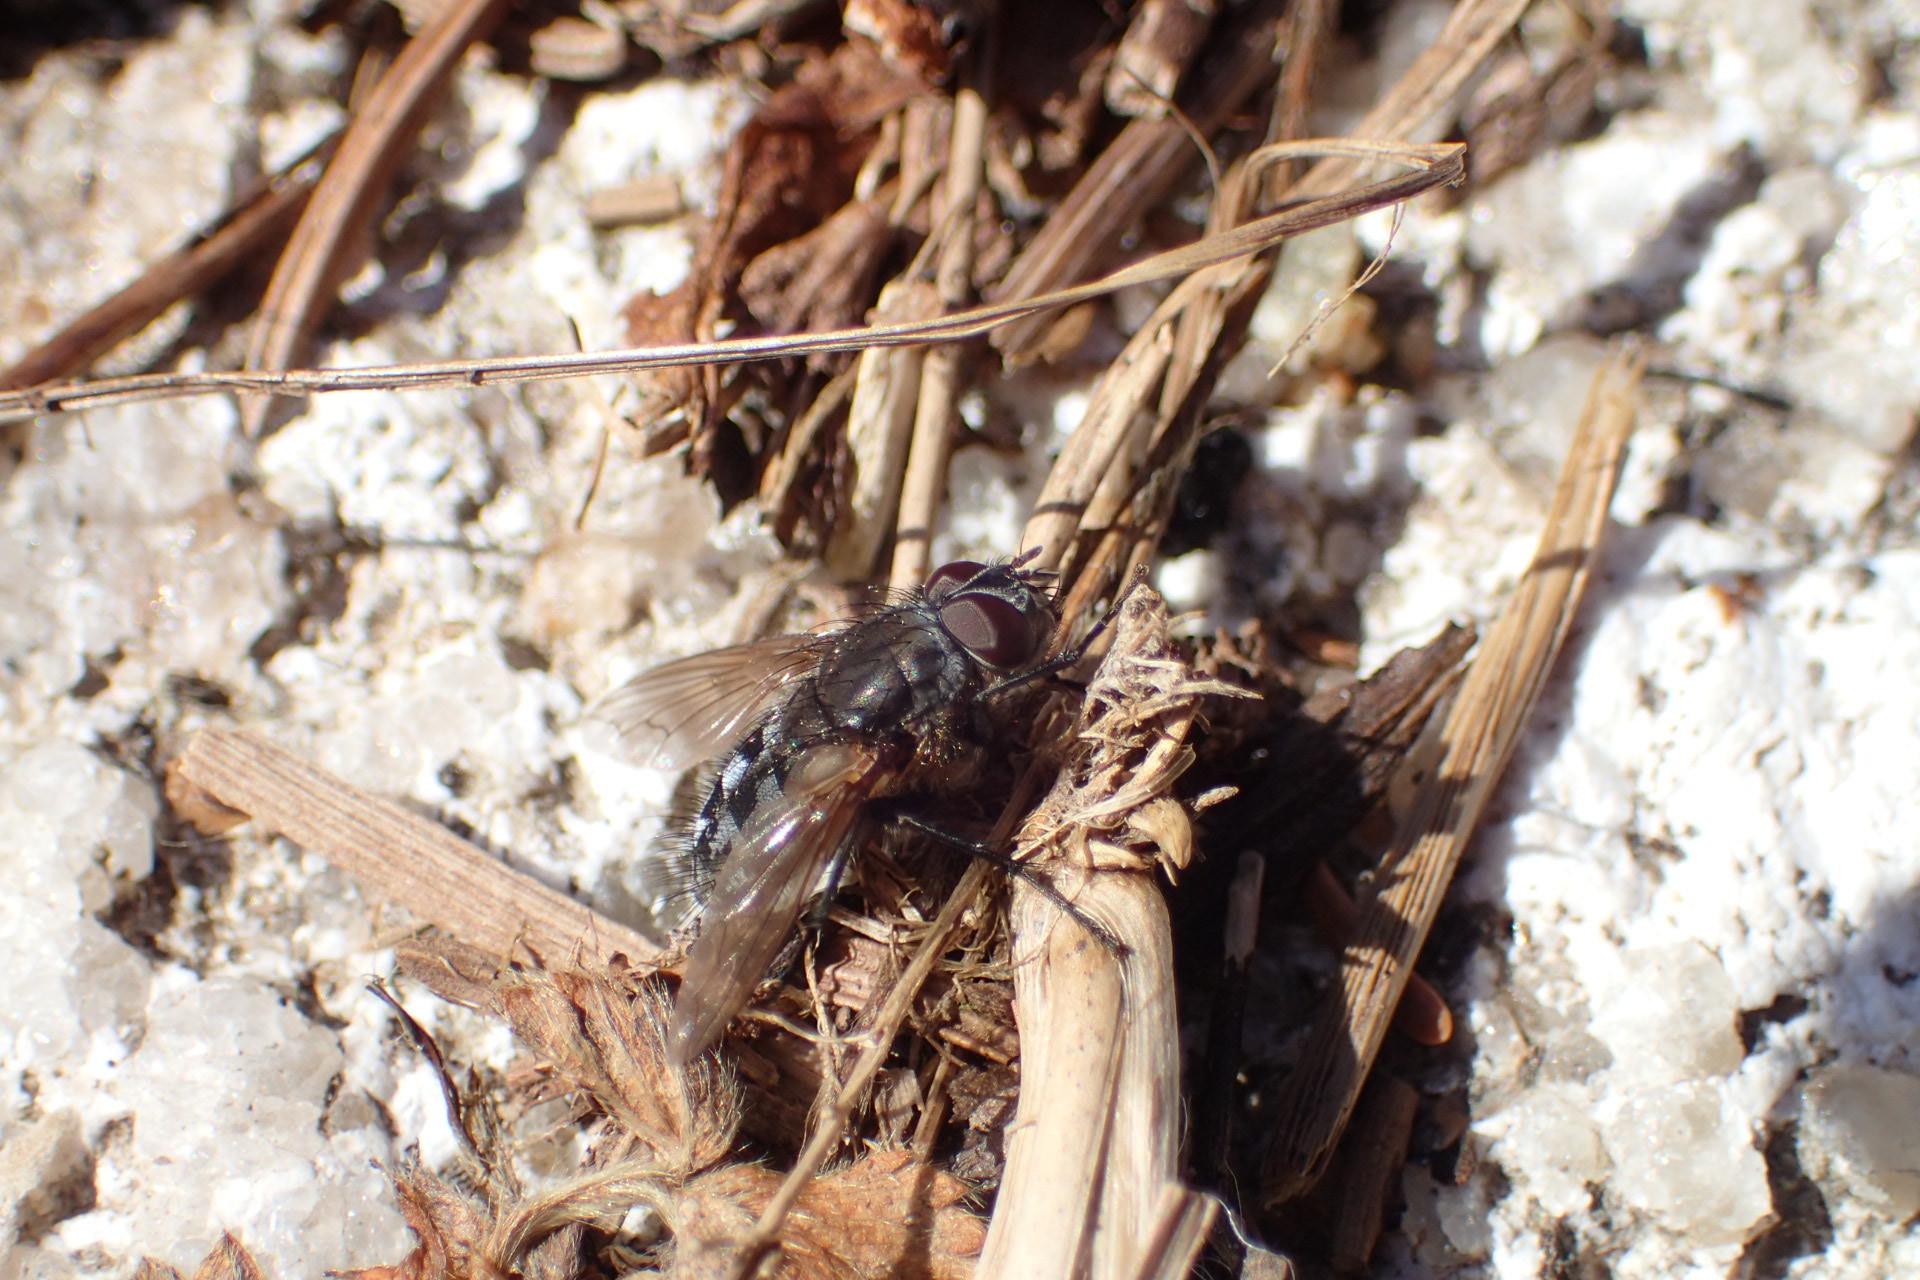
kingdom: Animalia
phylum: Arthropoda
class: Insecta
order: Diptera
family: Polleniidae
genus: Pollenia
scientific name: Pollenia
